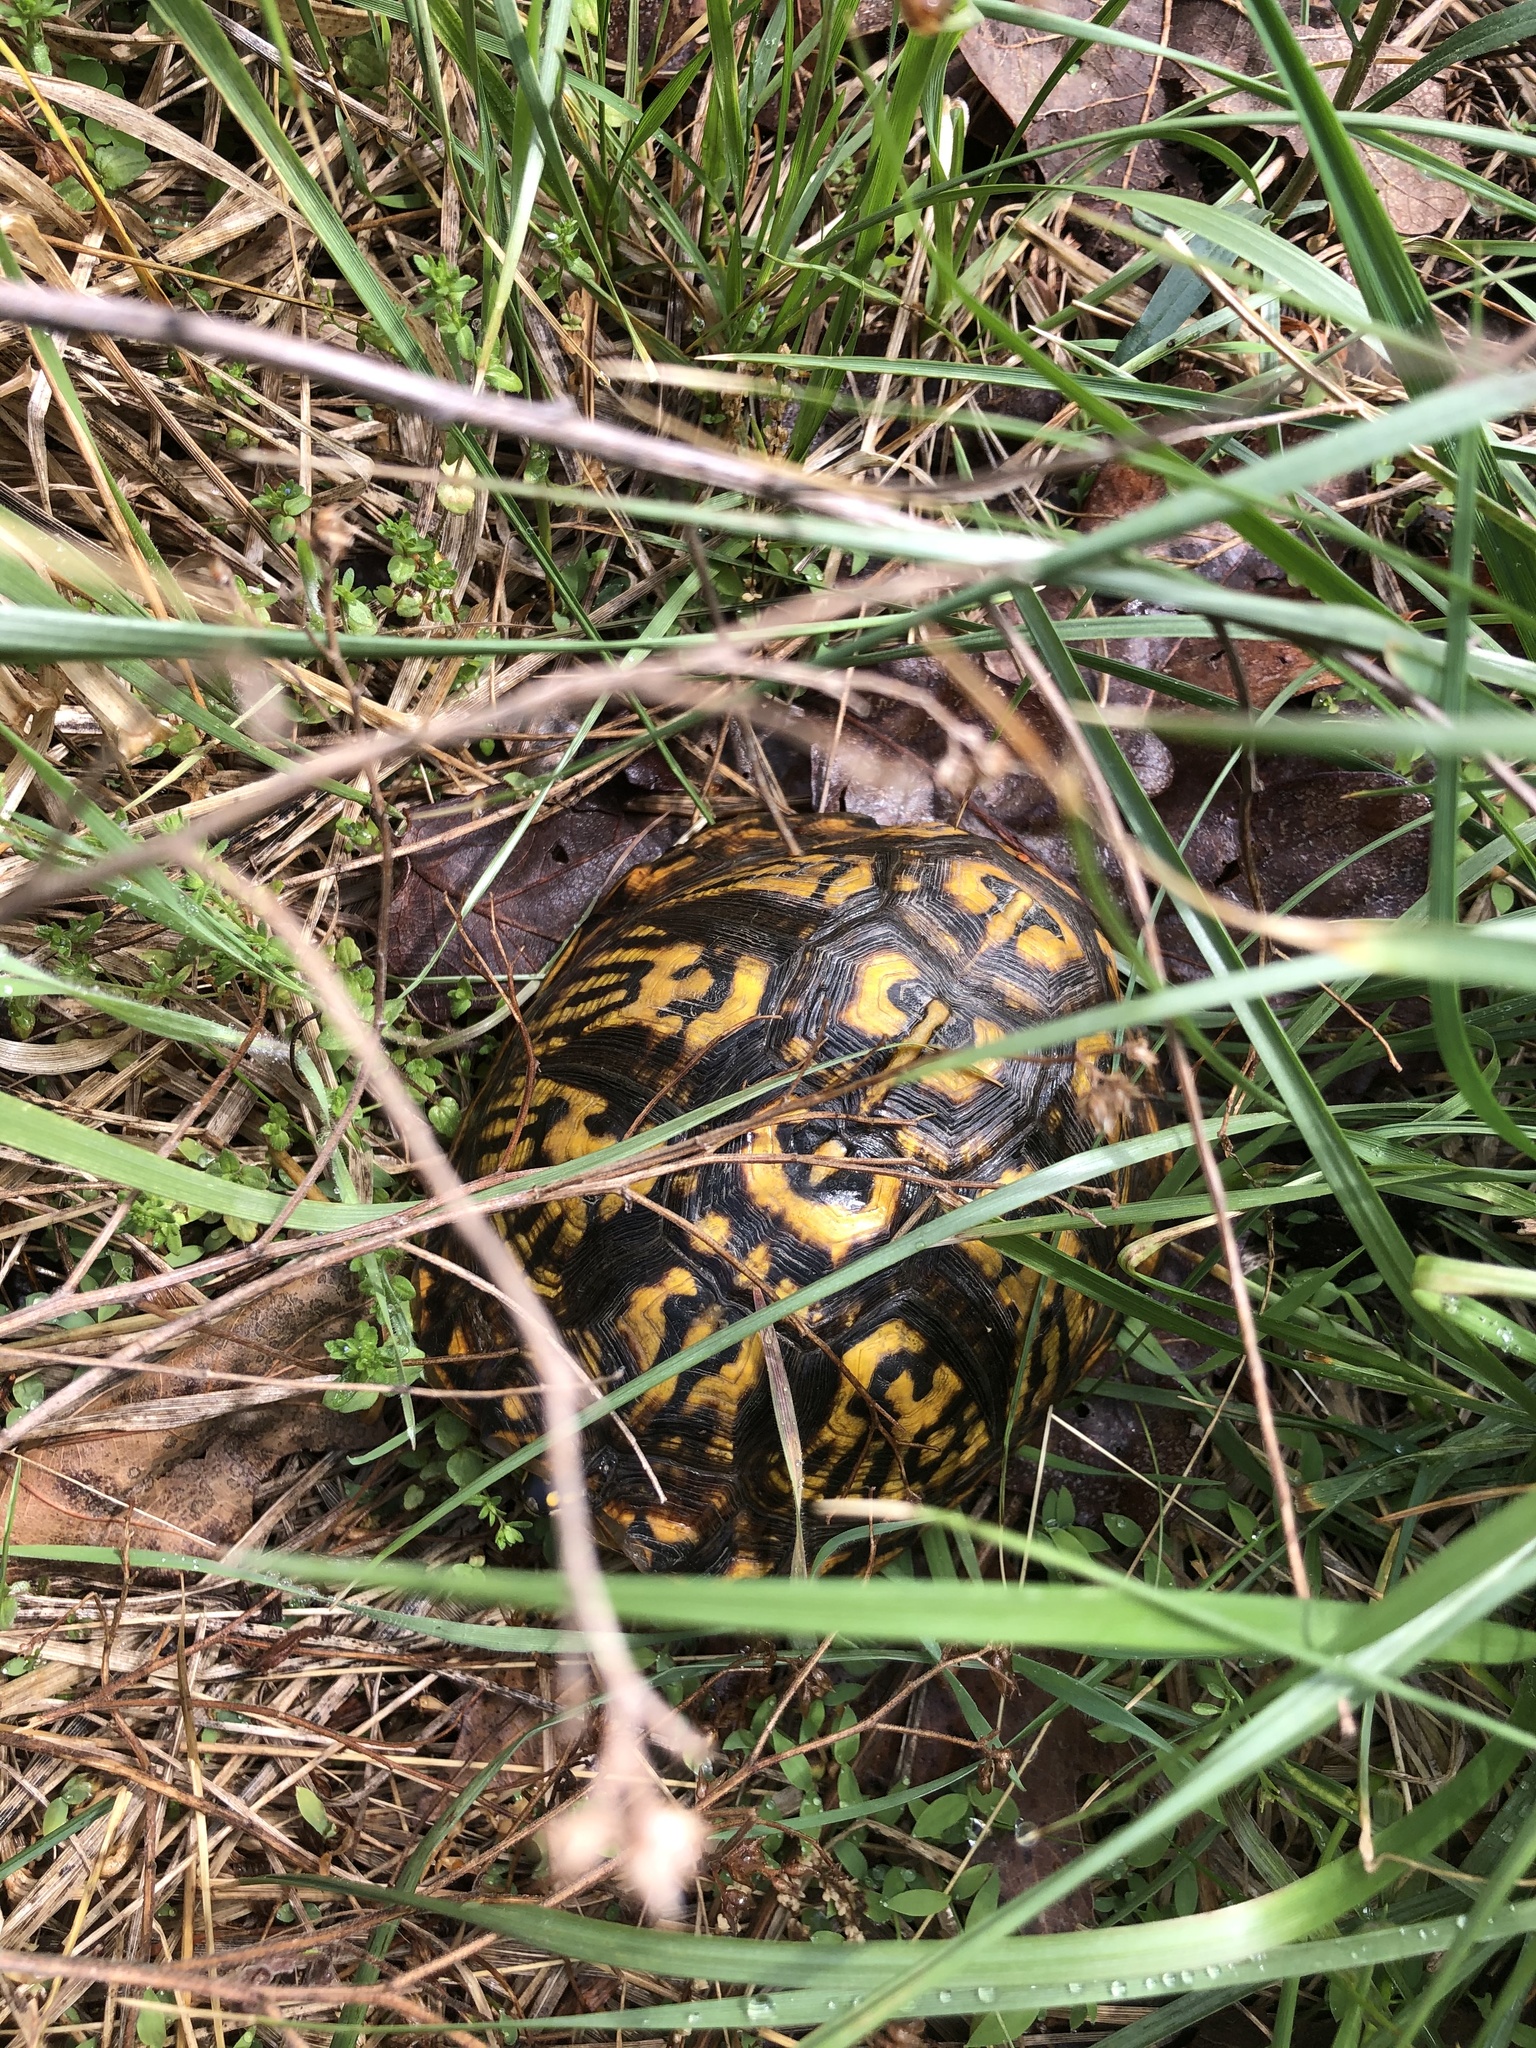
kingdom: Animalia
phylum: Chordata
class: Testudines
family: Emydidae
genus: Terrapene
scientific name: Terrapene carolina
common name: Common box turtle
